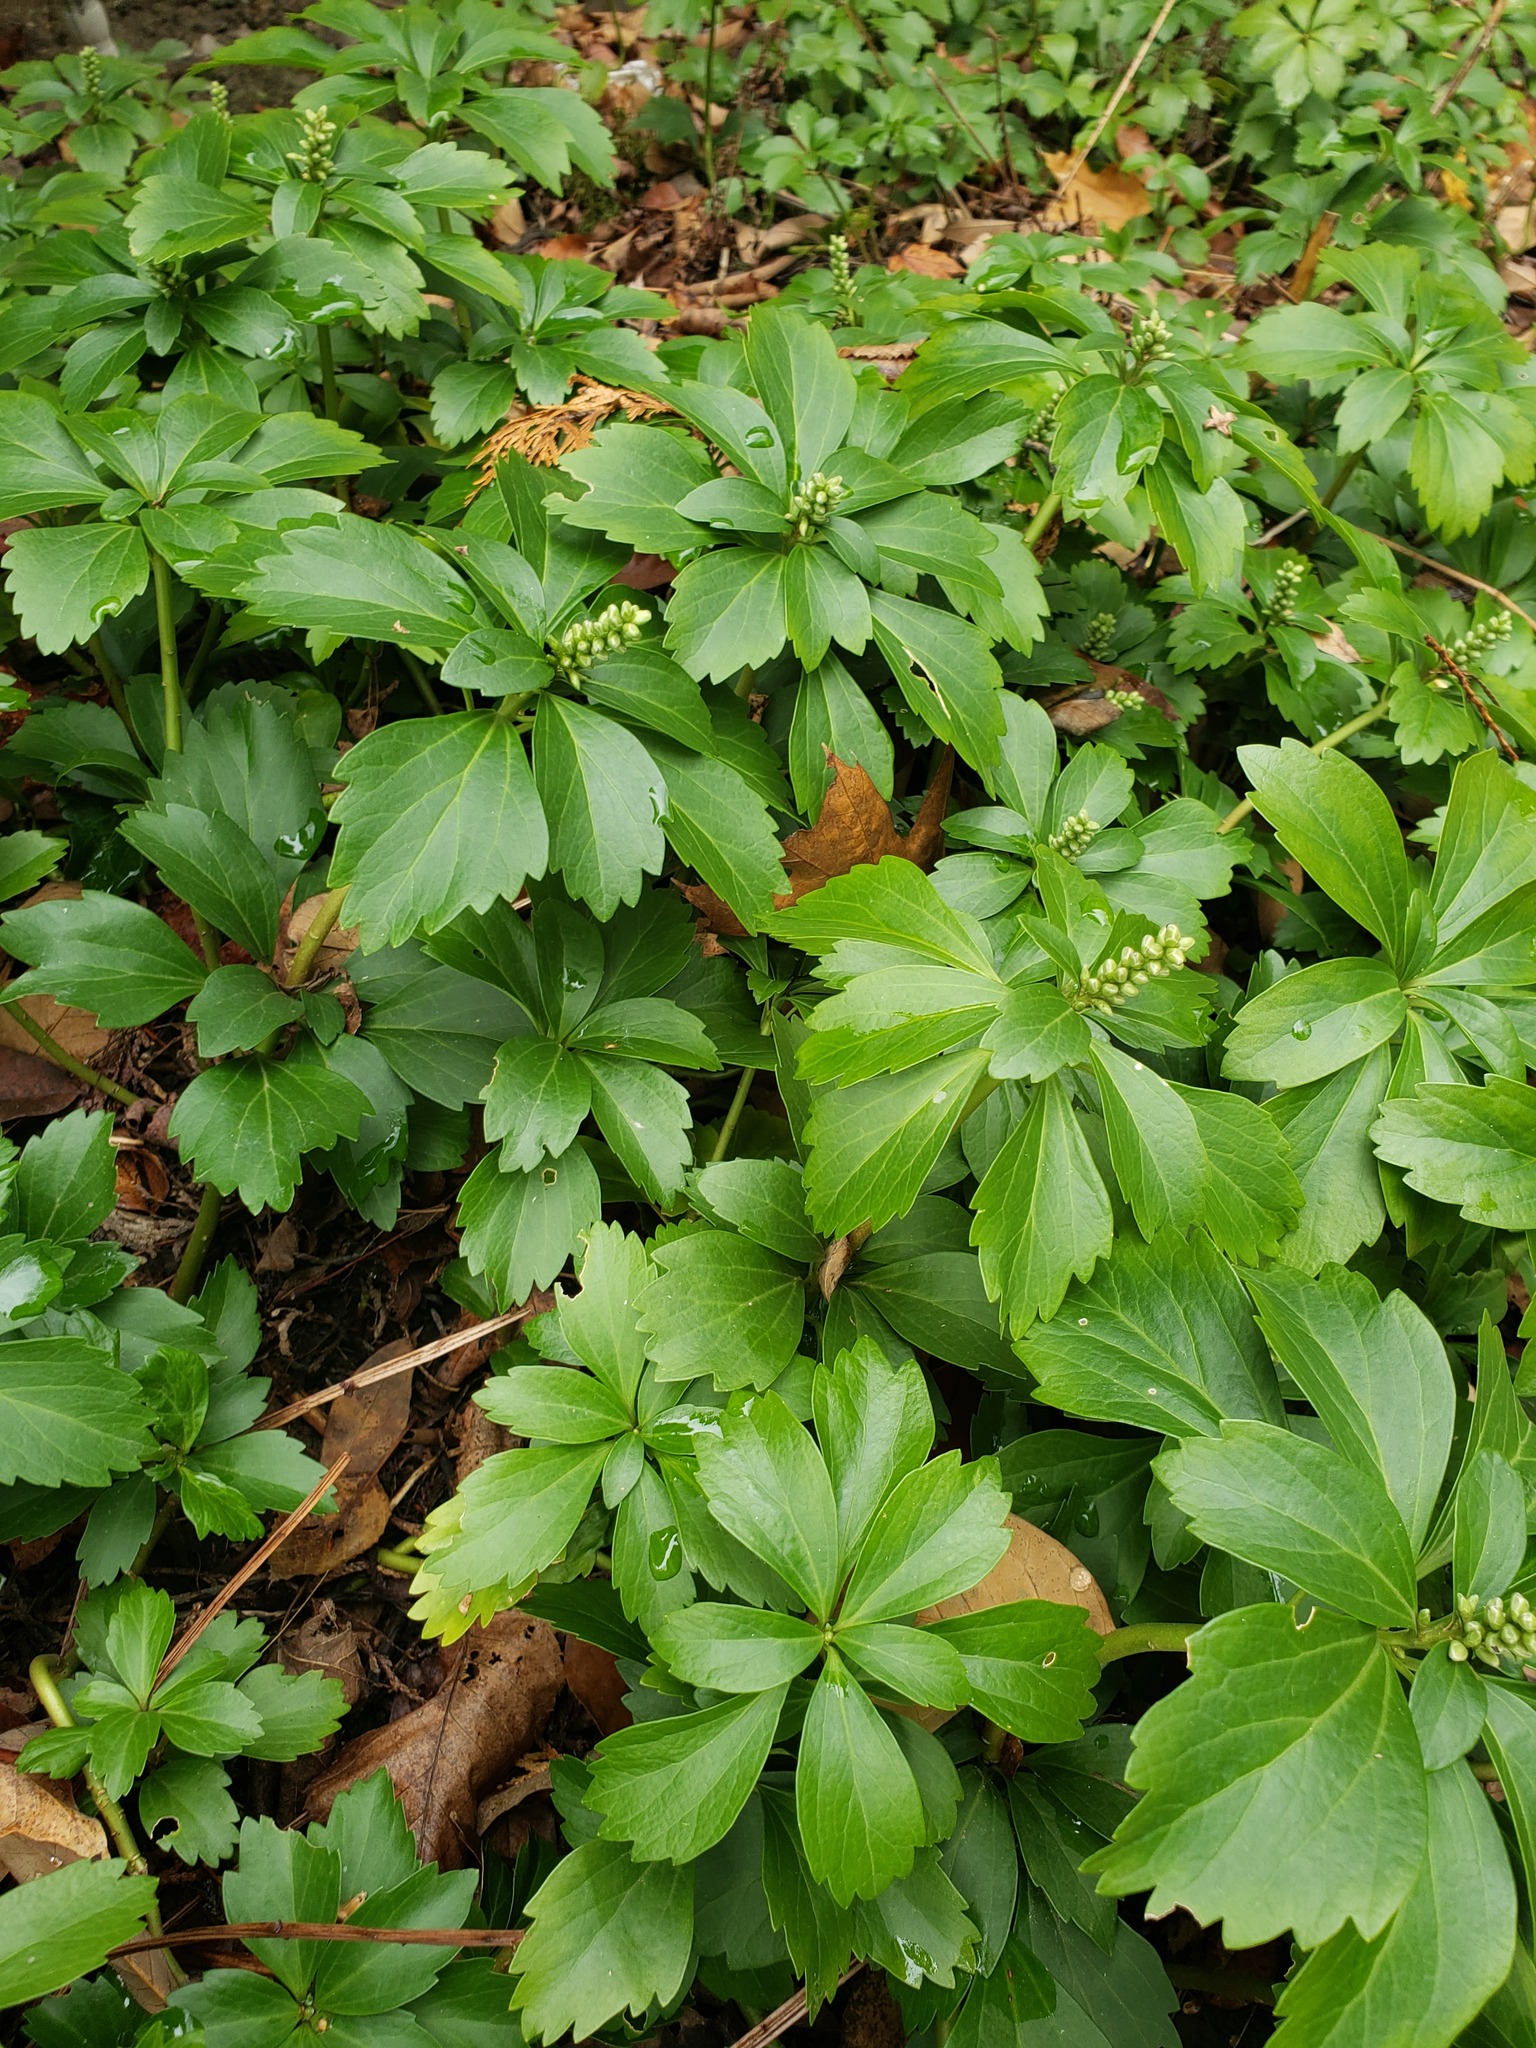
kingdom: Plantae
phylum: Tracheophyta
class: Magnoliopsida
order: Buxales
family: Buxaceae
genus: Pachysandra
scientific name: Pachysandra terminalis
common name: Japanese pachysandra
